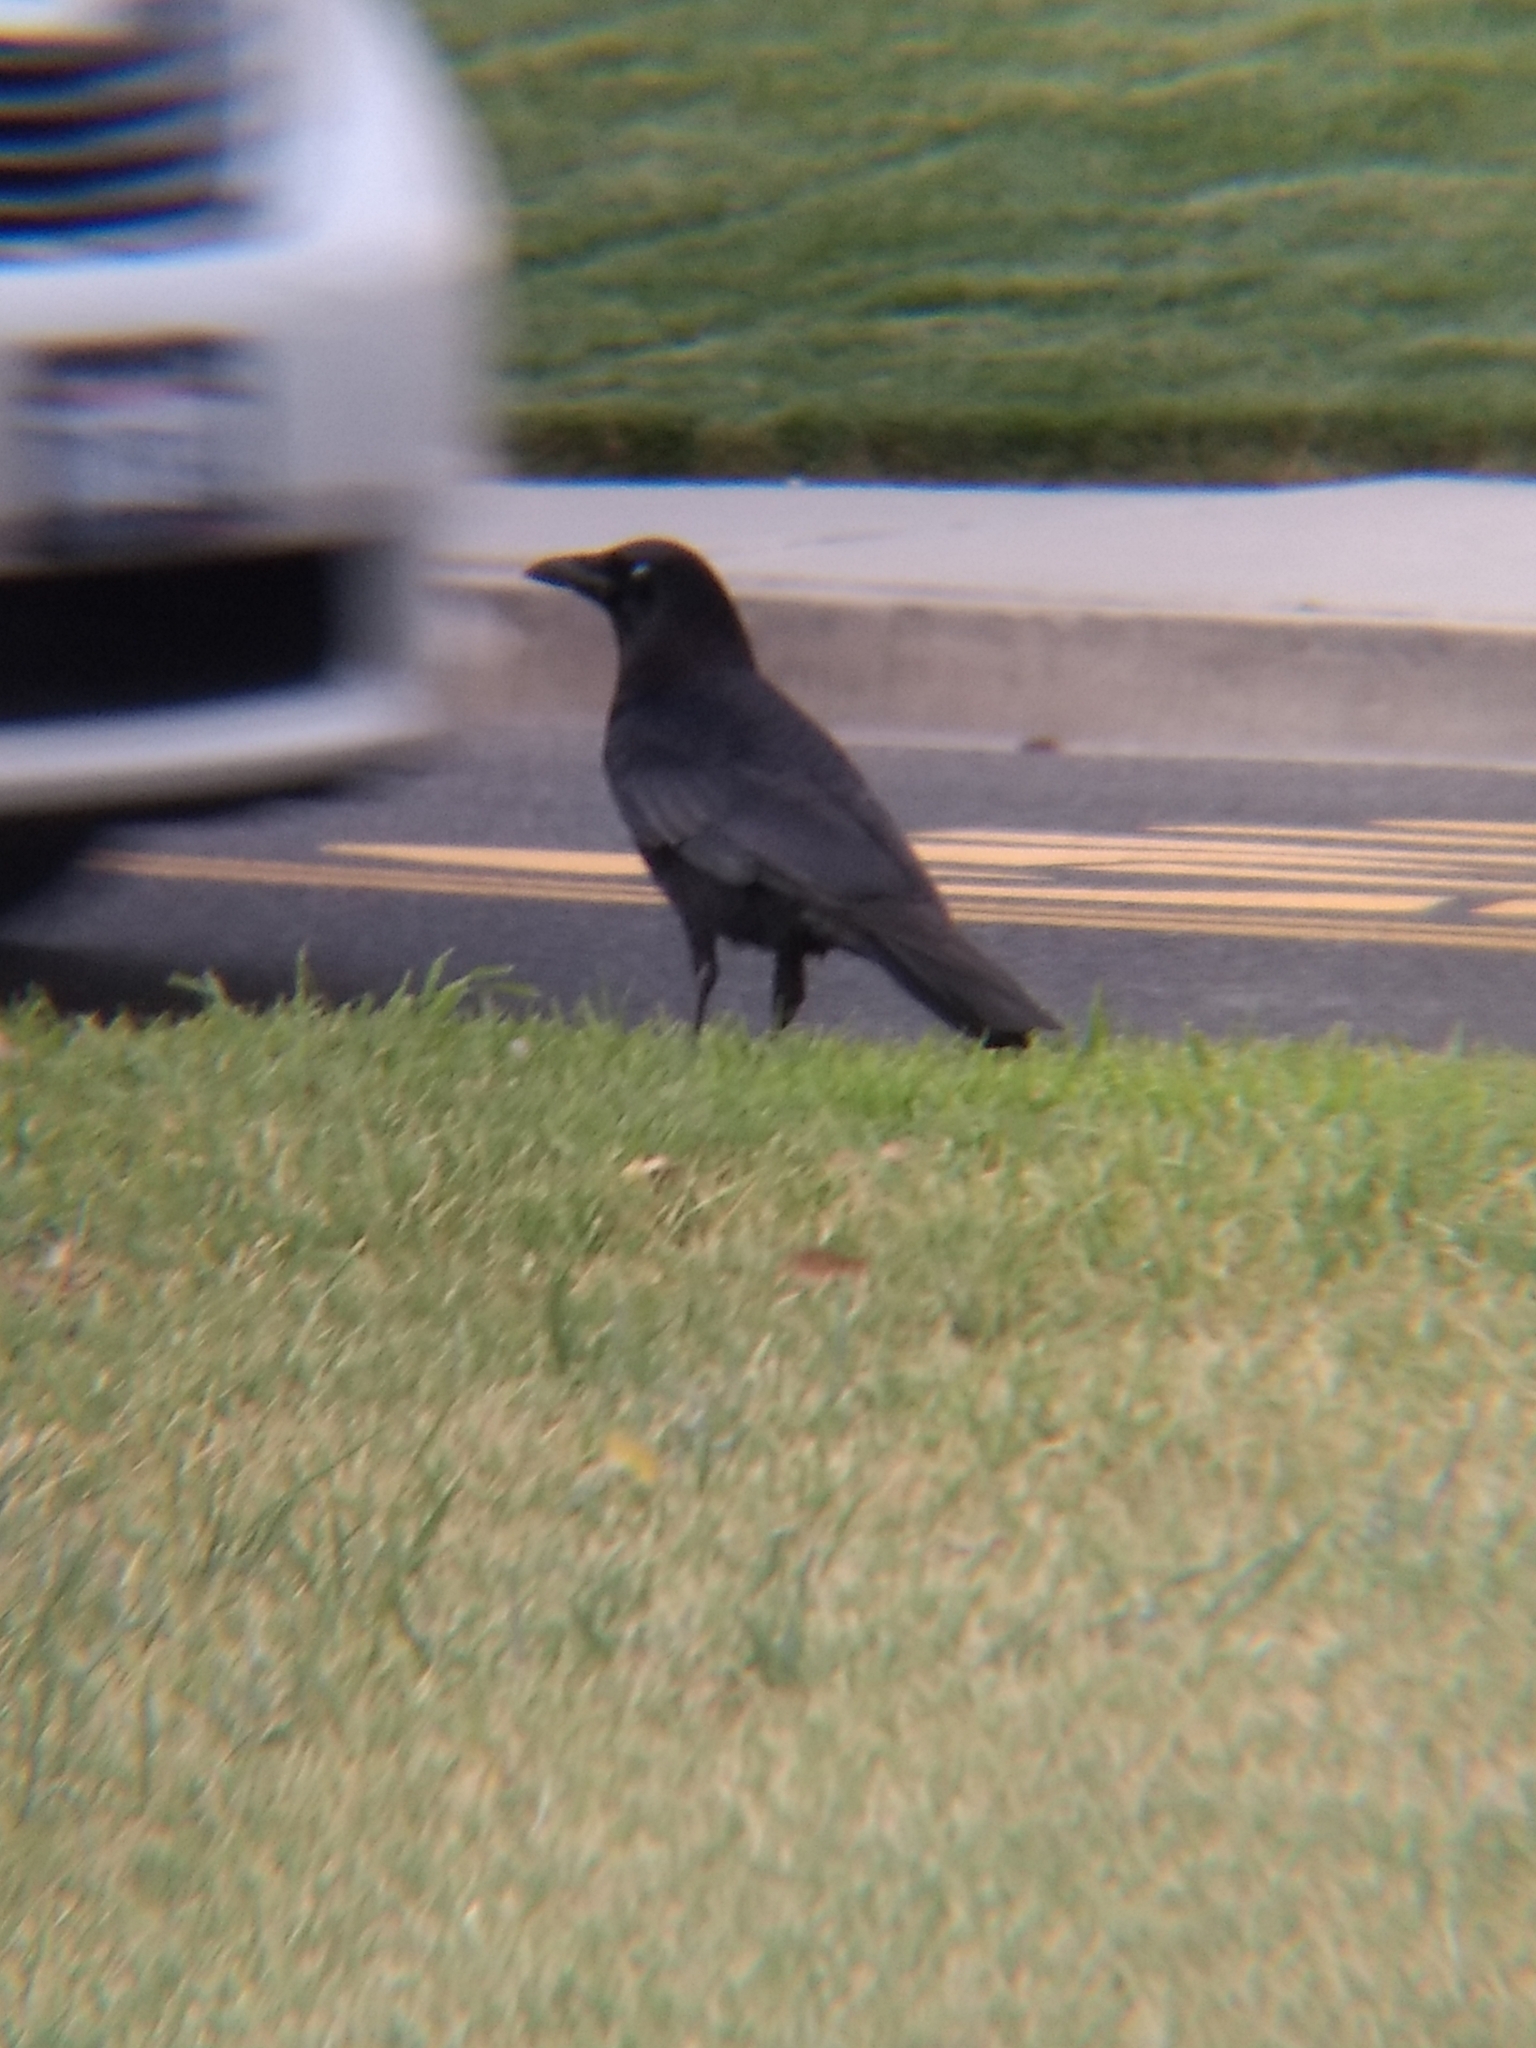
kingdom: Animalia
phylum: Chordata
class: Aves
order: Passeriformes
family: Corvidae
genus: Corvus
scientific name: Corvus brachyrhynchos
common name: American crow
